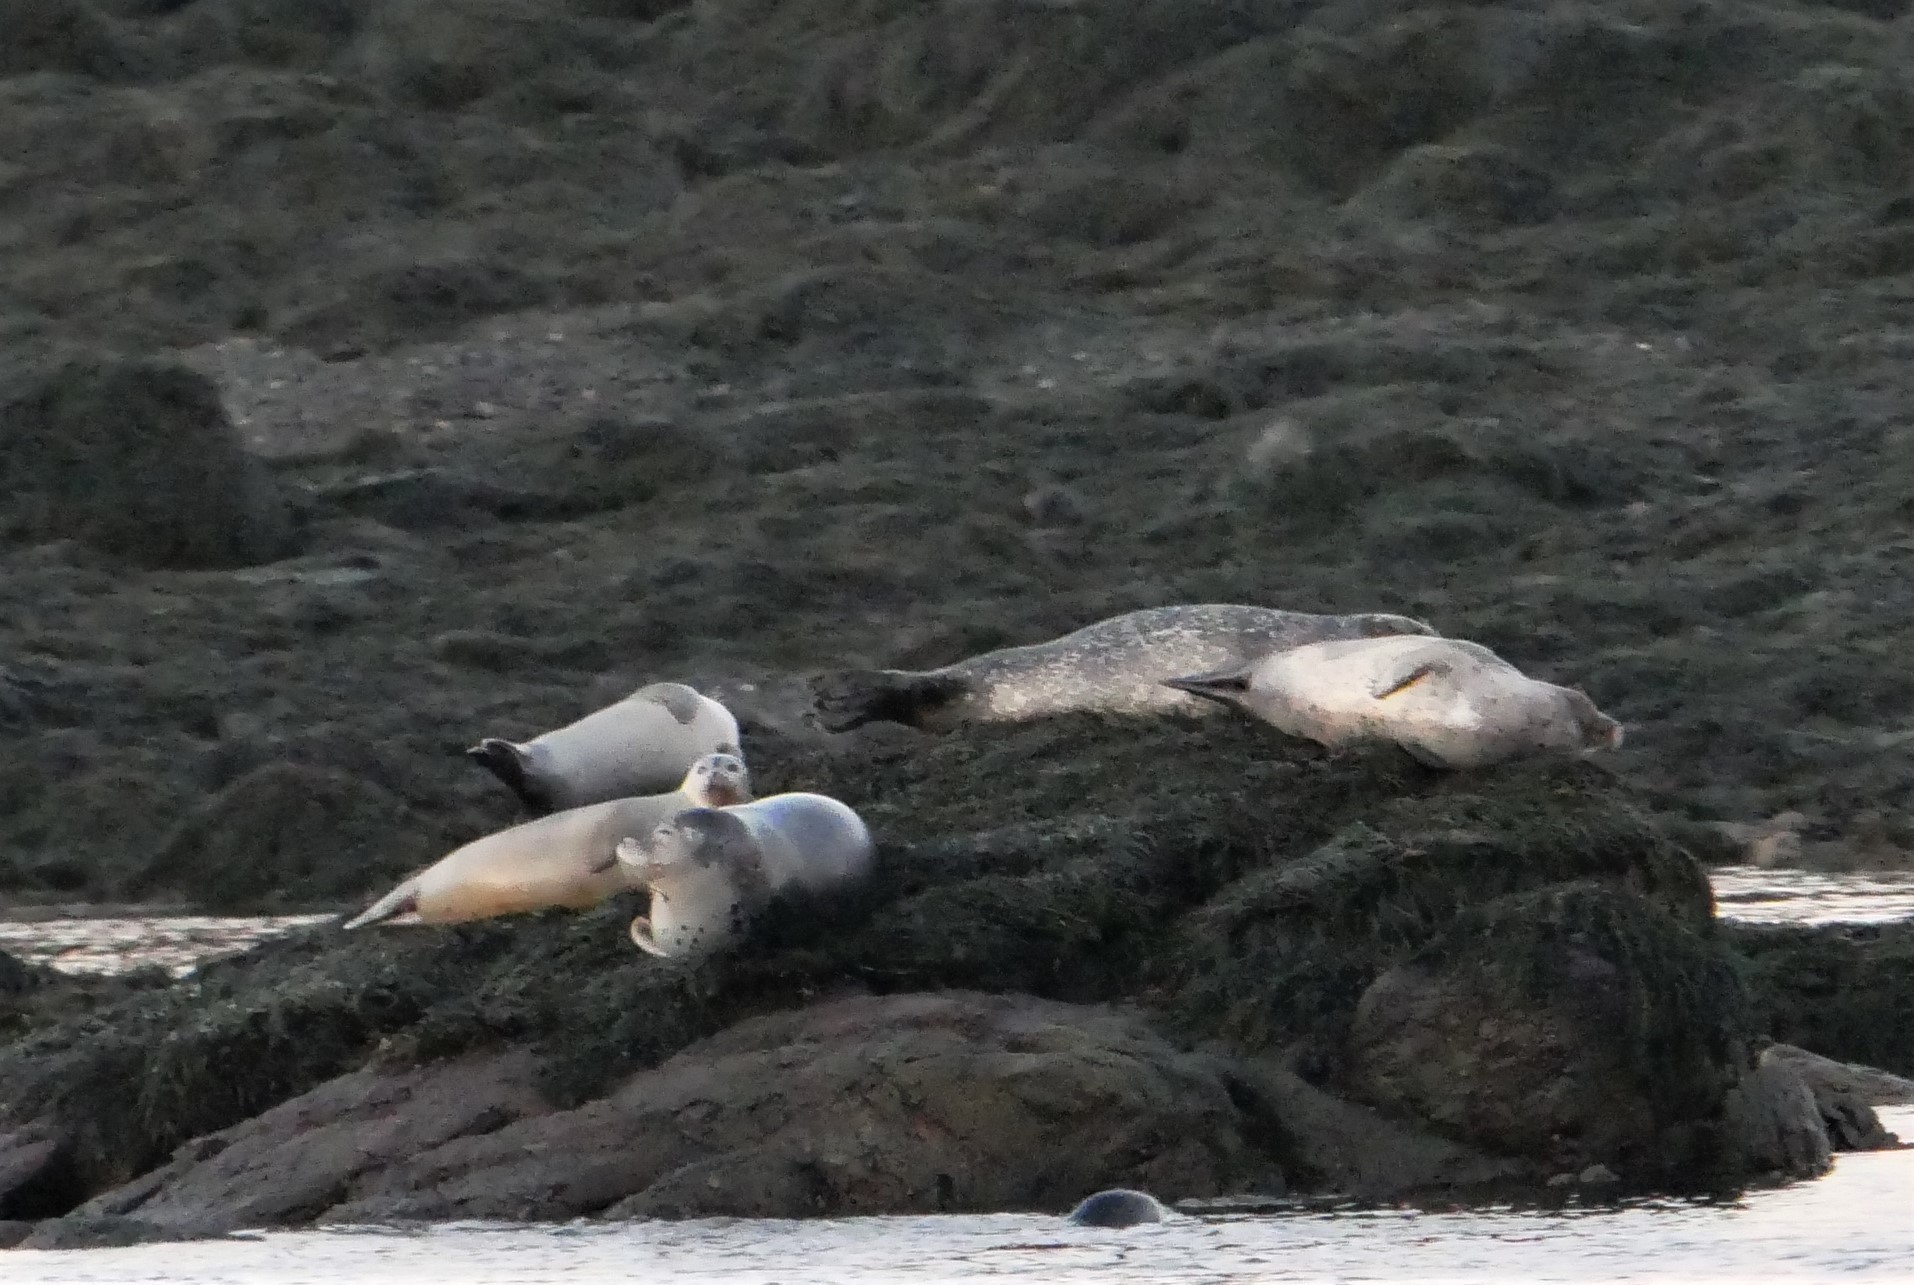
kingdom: Animalia
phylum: Chordata
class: Mammalia
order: Carnivora
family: Phocidae
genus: Phoca
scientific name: Phoca vitulina
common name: Harbor seal
